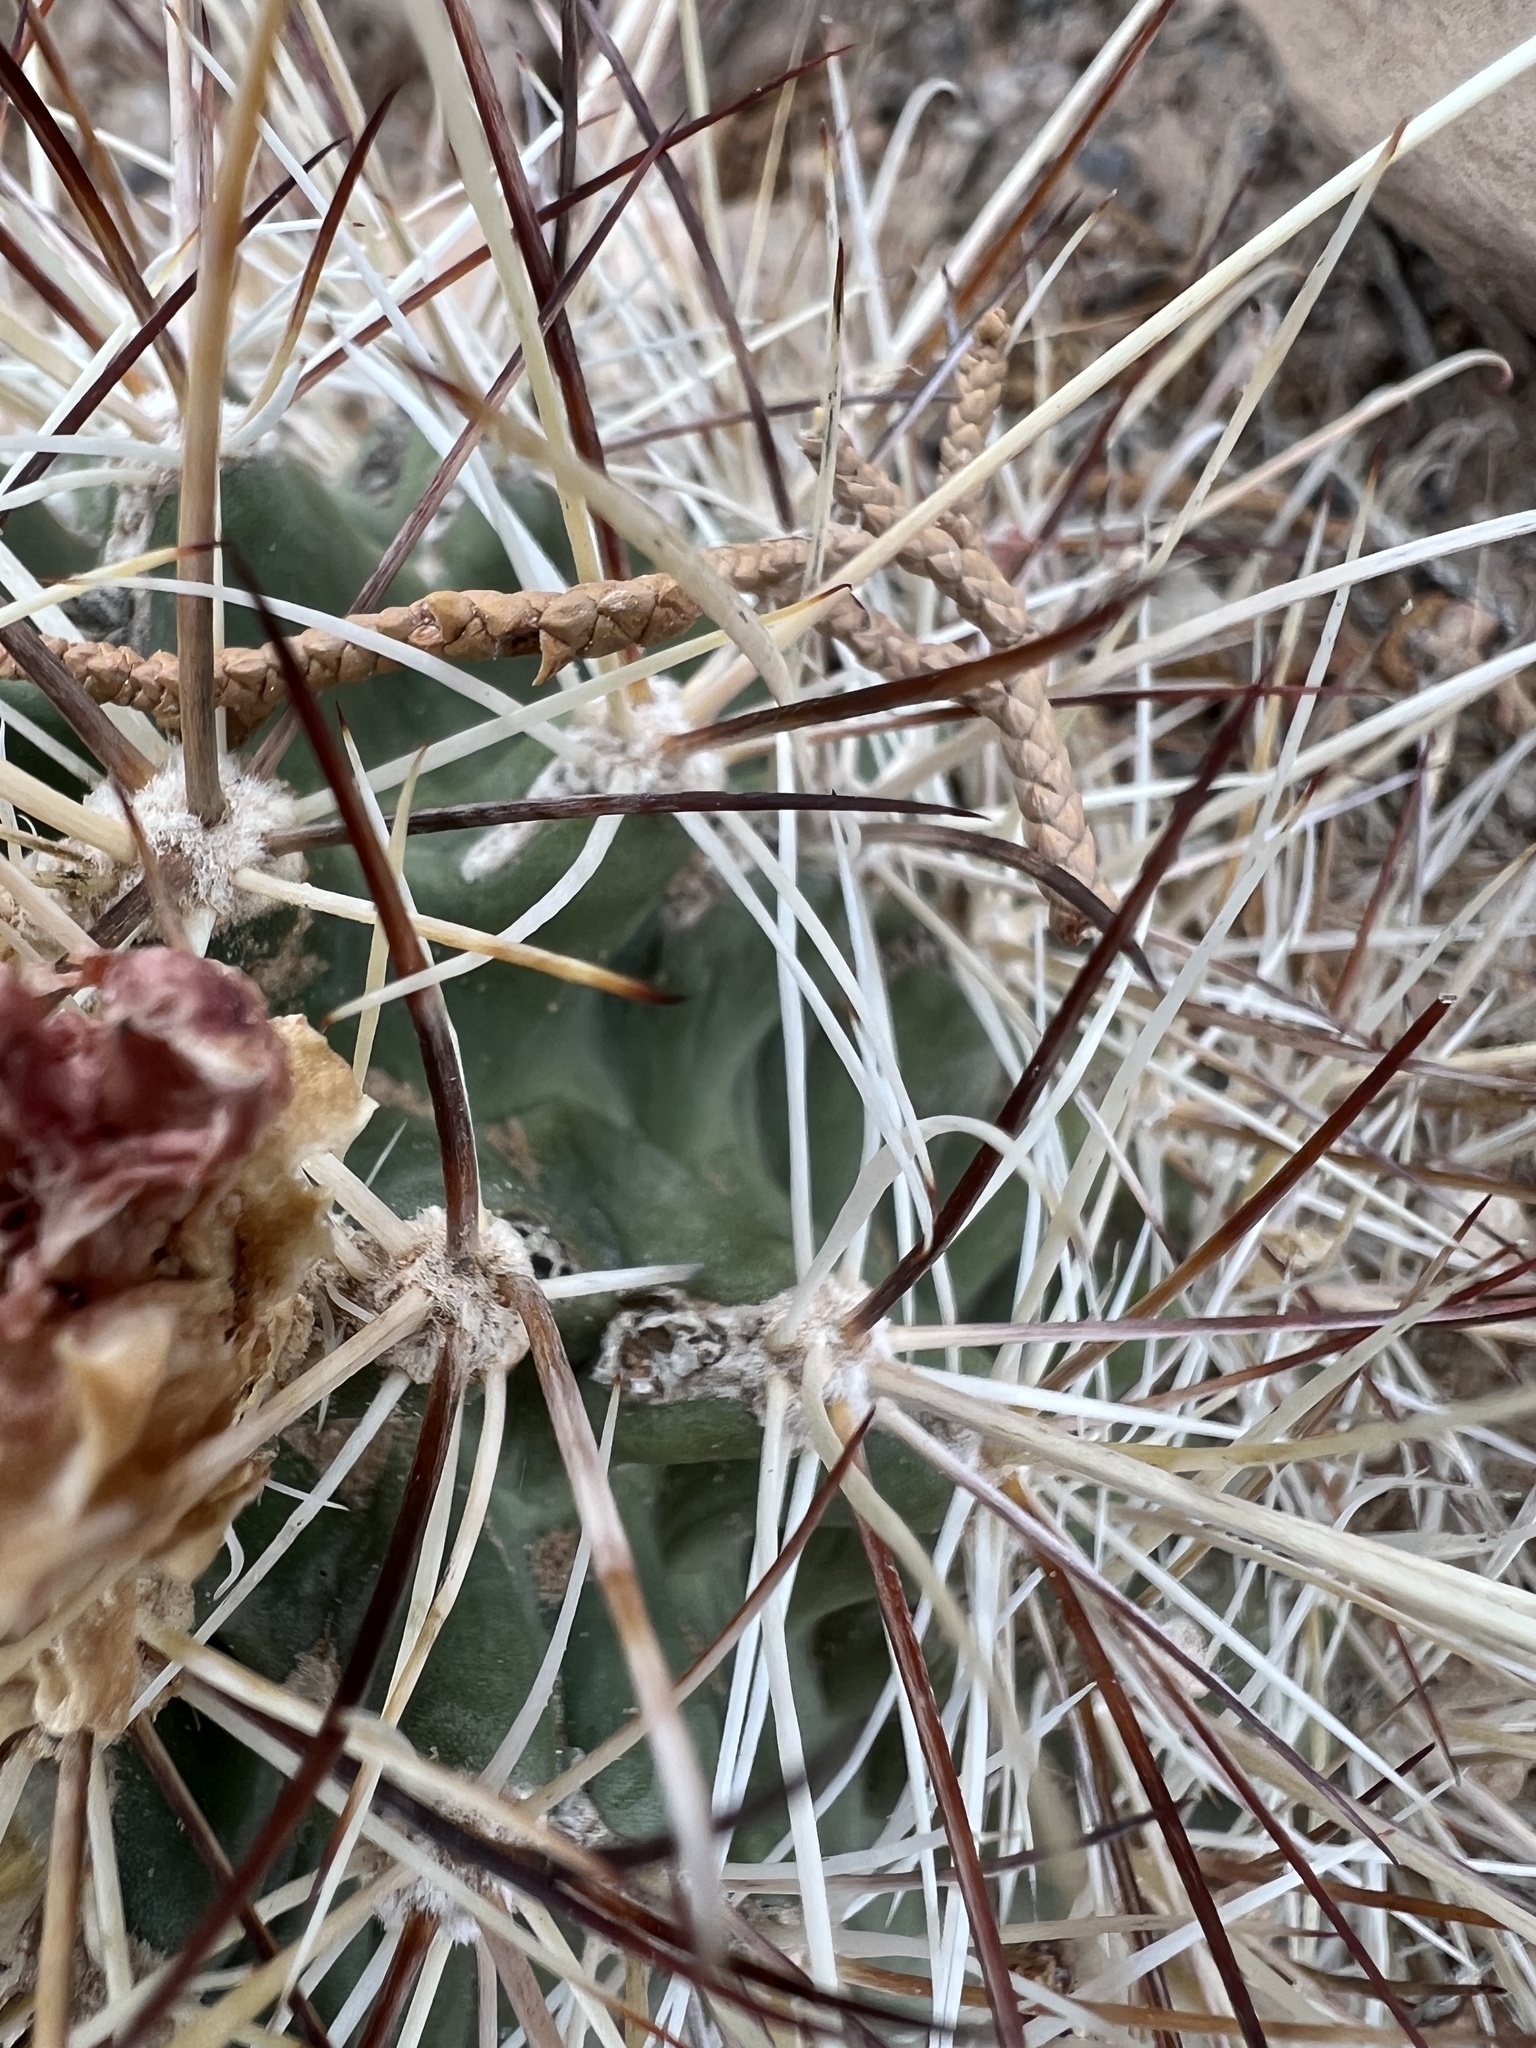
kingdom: Plantae
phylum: Tracheophyta
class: Magnoliopsida
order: Caryophyllales
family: Cactaceae
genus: Sclerocactus
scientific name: Sclerocactus parviflorus
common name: Small-flower fishhook cactus
